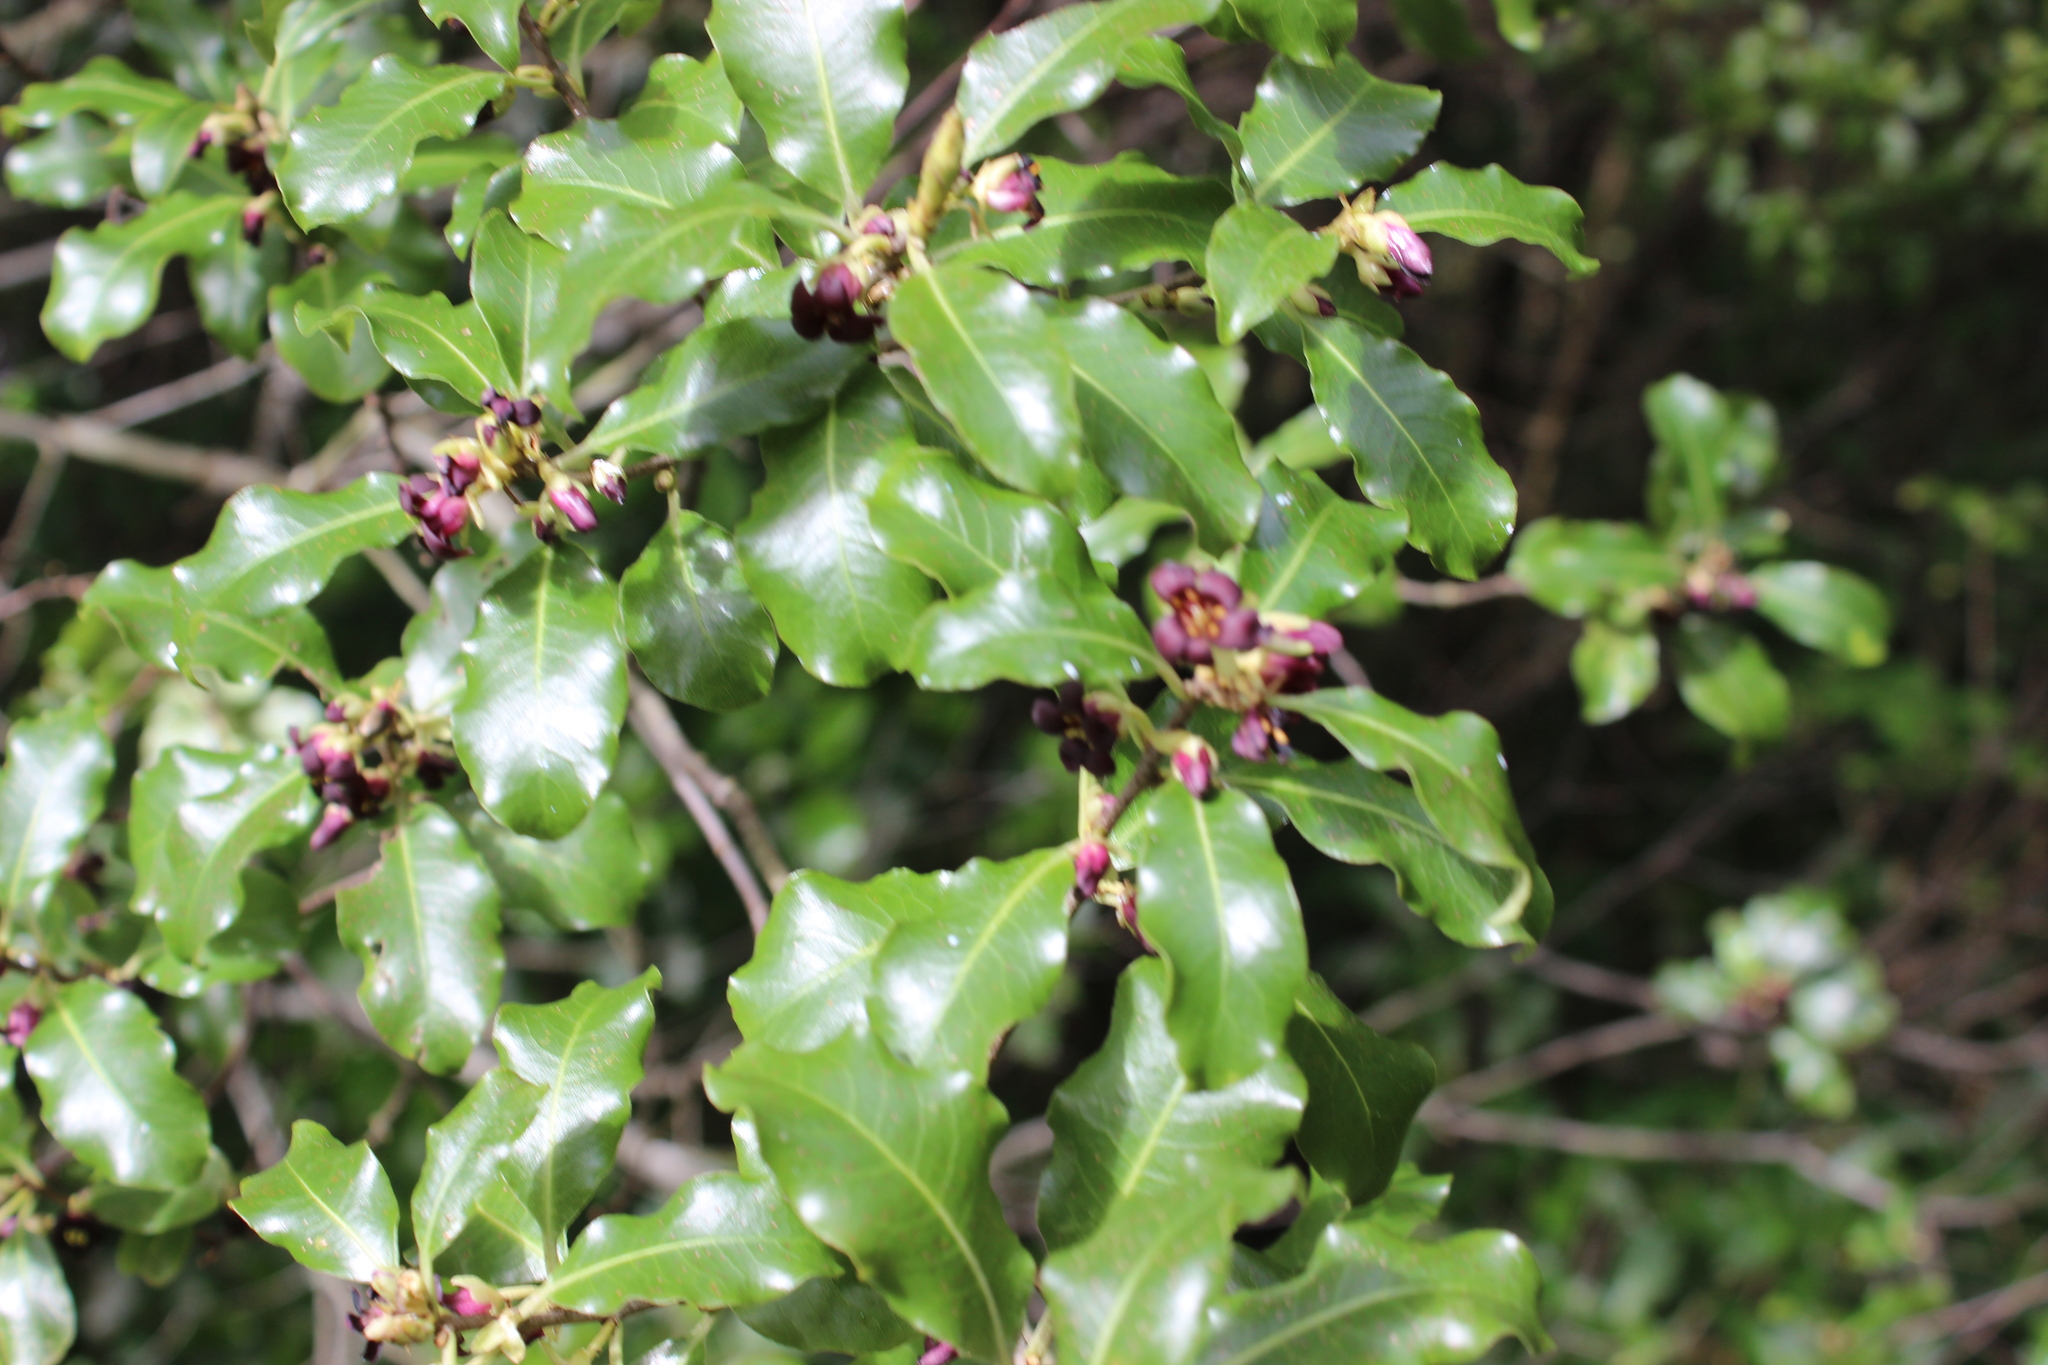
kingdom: Plantae
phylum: Tracheophyta
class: Magnoliopsida
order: Apiales
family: Pittosporaceae
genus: Pittosporum
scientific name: Pittosporum tenuifolium
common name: Kohuhu
